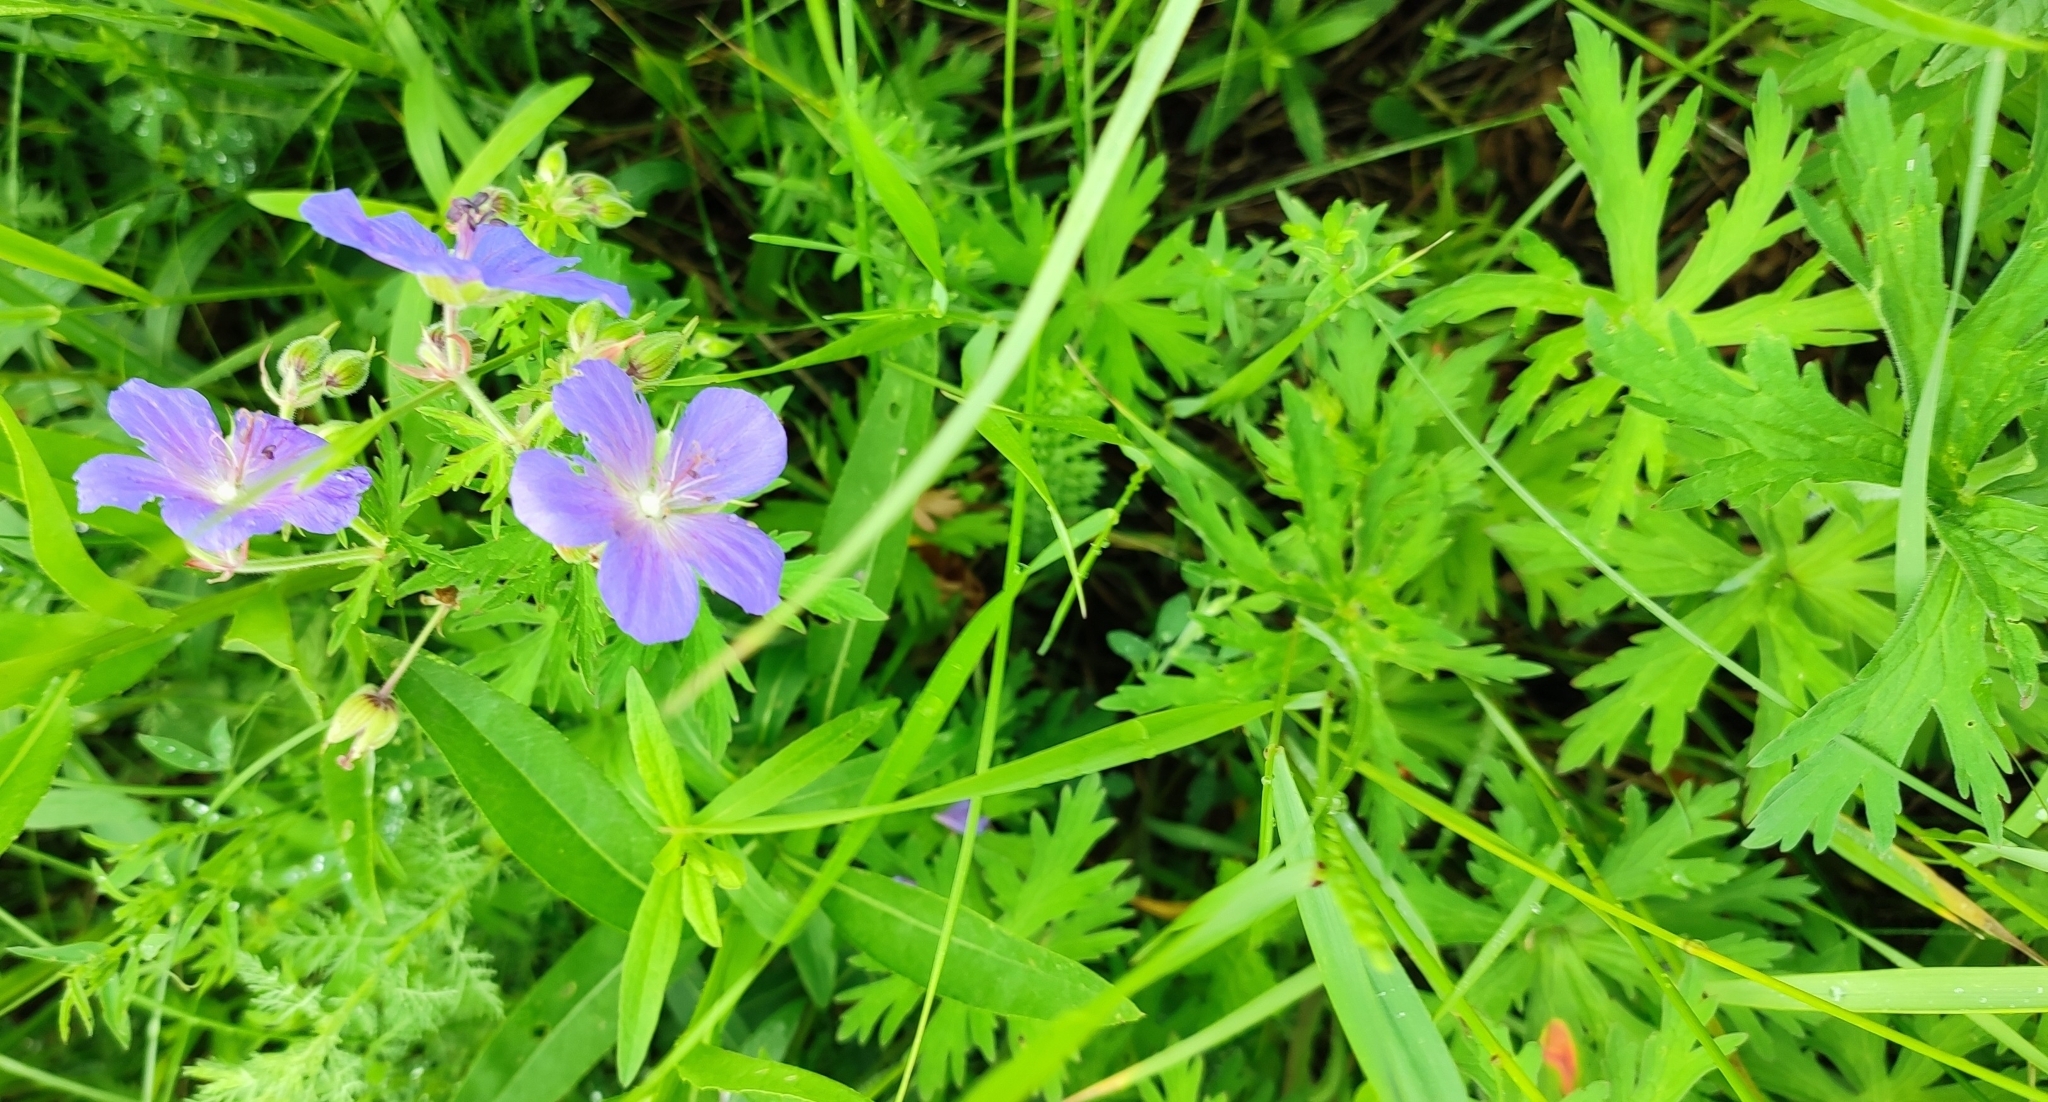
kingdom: Plantae
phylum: Tracheophyta
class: Magnoliopsida
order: Geraniales
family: Geraniaceae
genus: Geranium
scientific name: Geranium pratense
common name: Meadow crane's-bill
